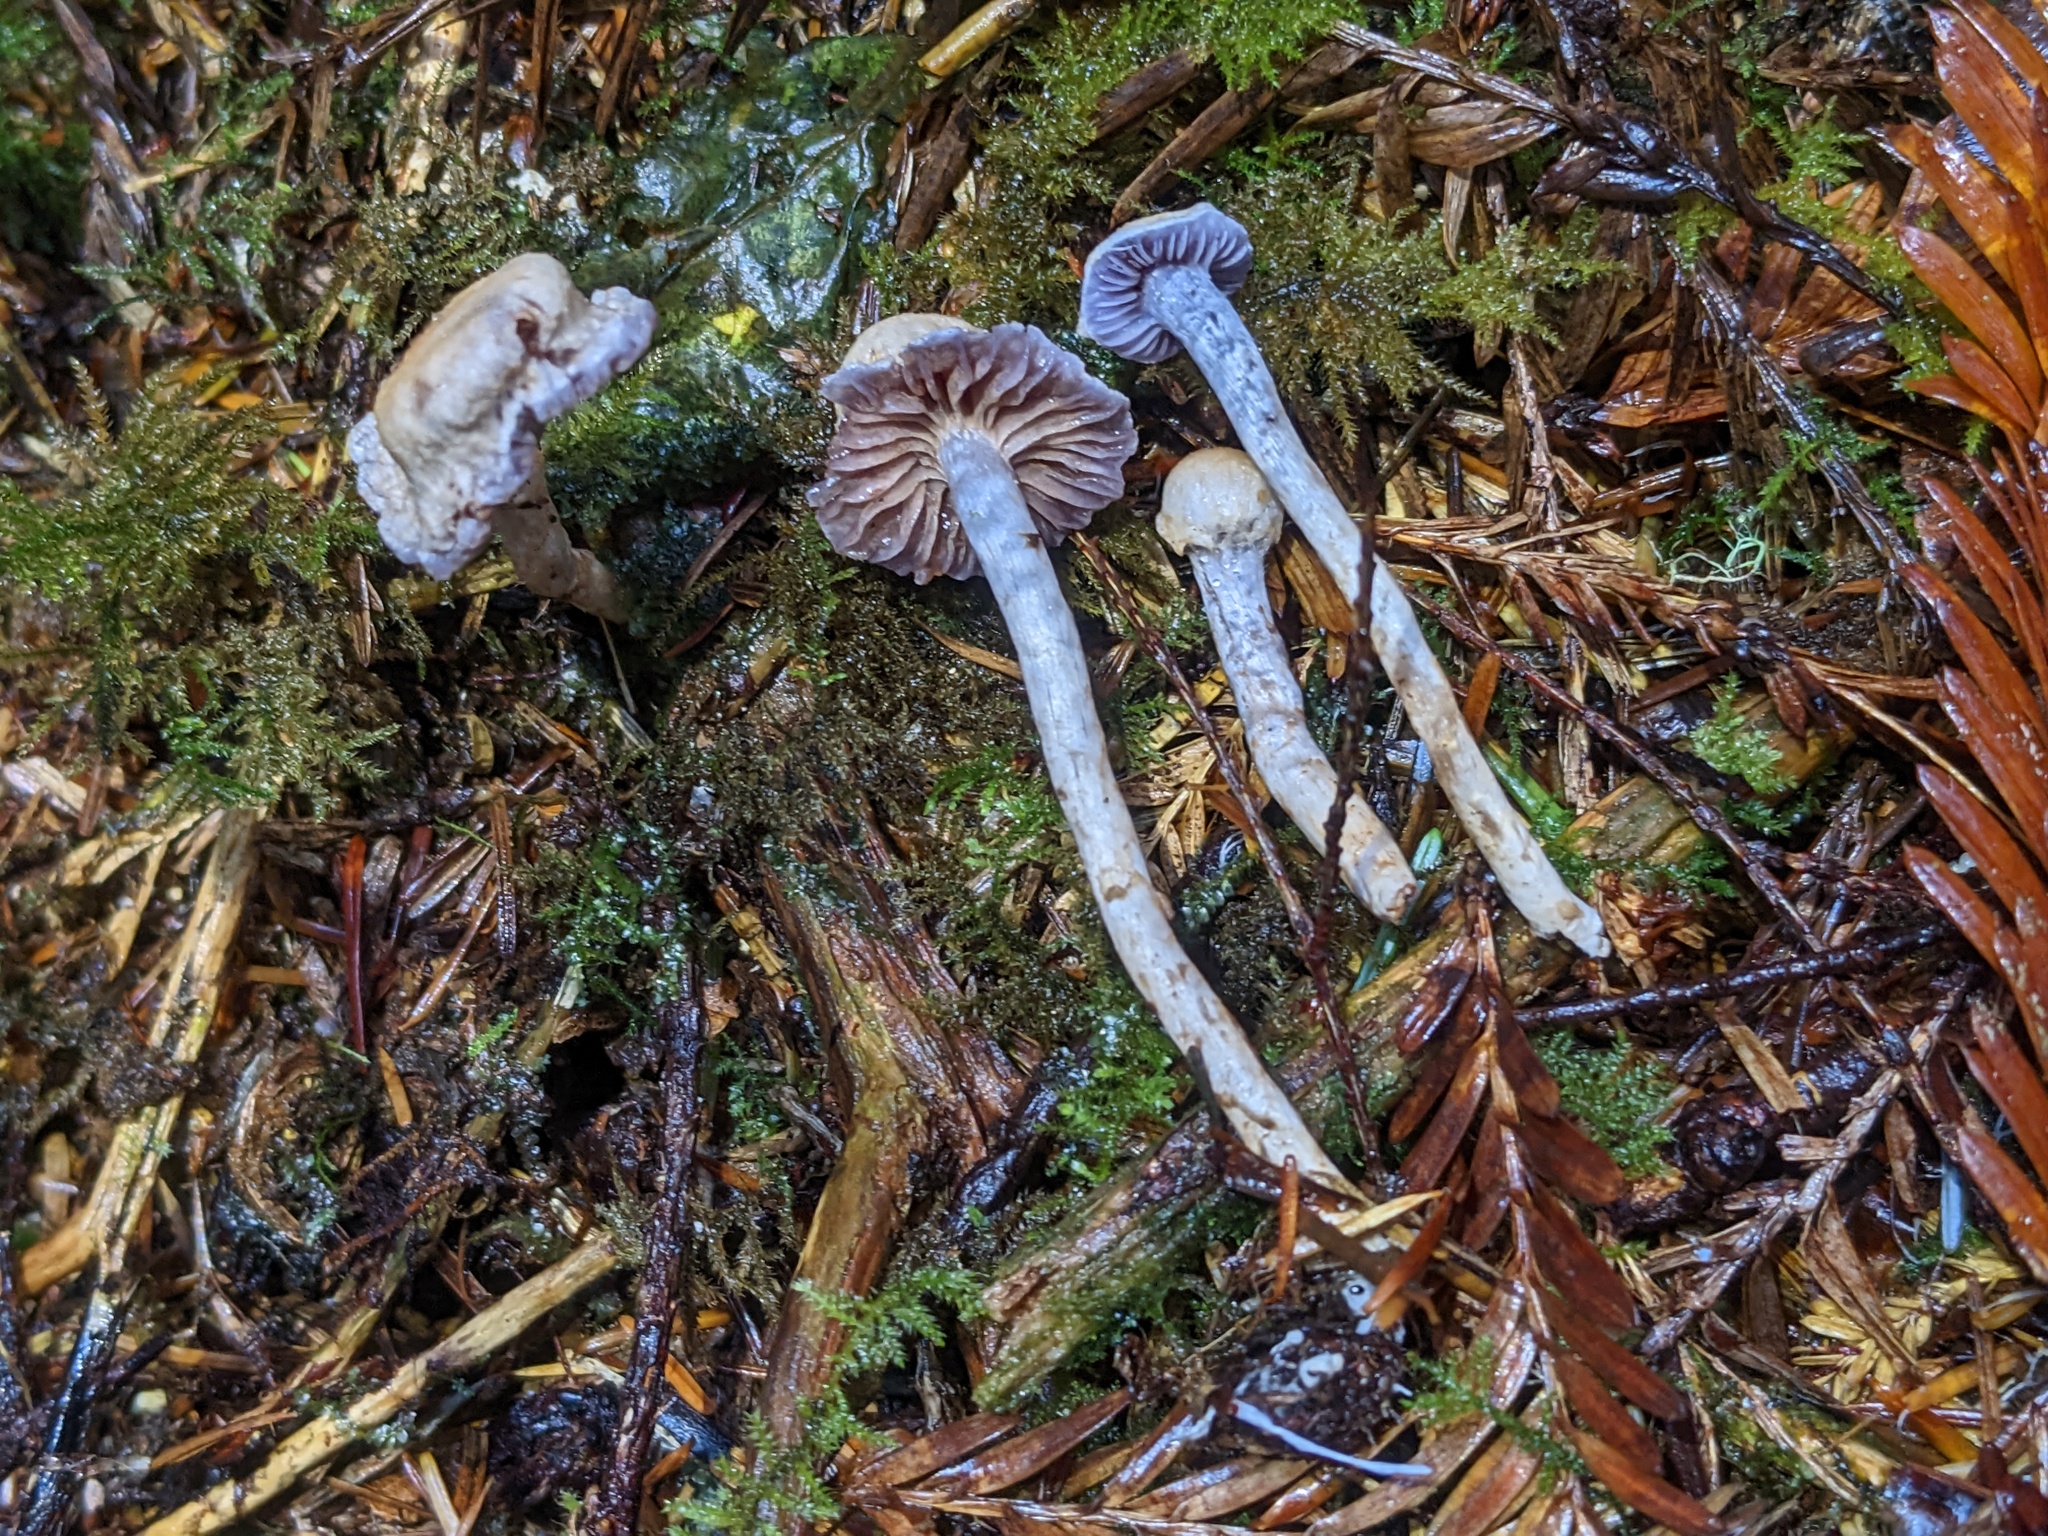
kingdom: Fungi
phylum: Basidiomycota
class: Agaricomycetes
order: Agaricales
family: Cortinariaceae
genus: Cortinarius
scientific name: Cortinarius anomalovelatus
